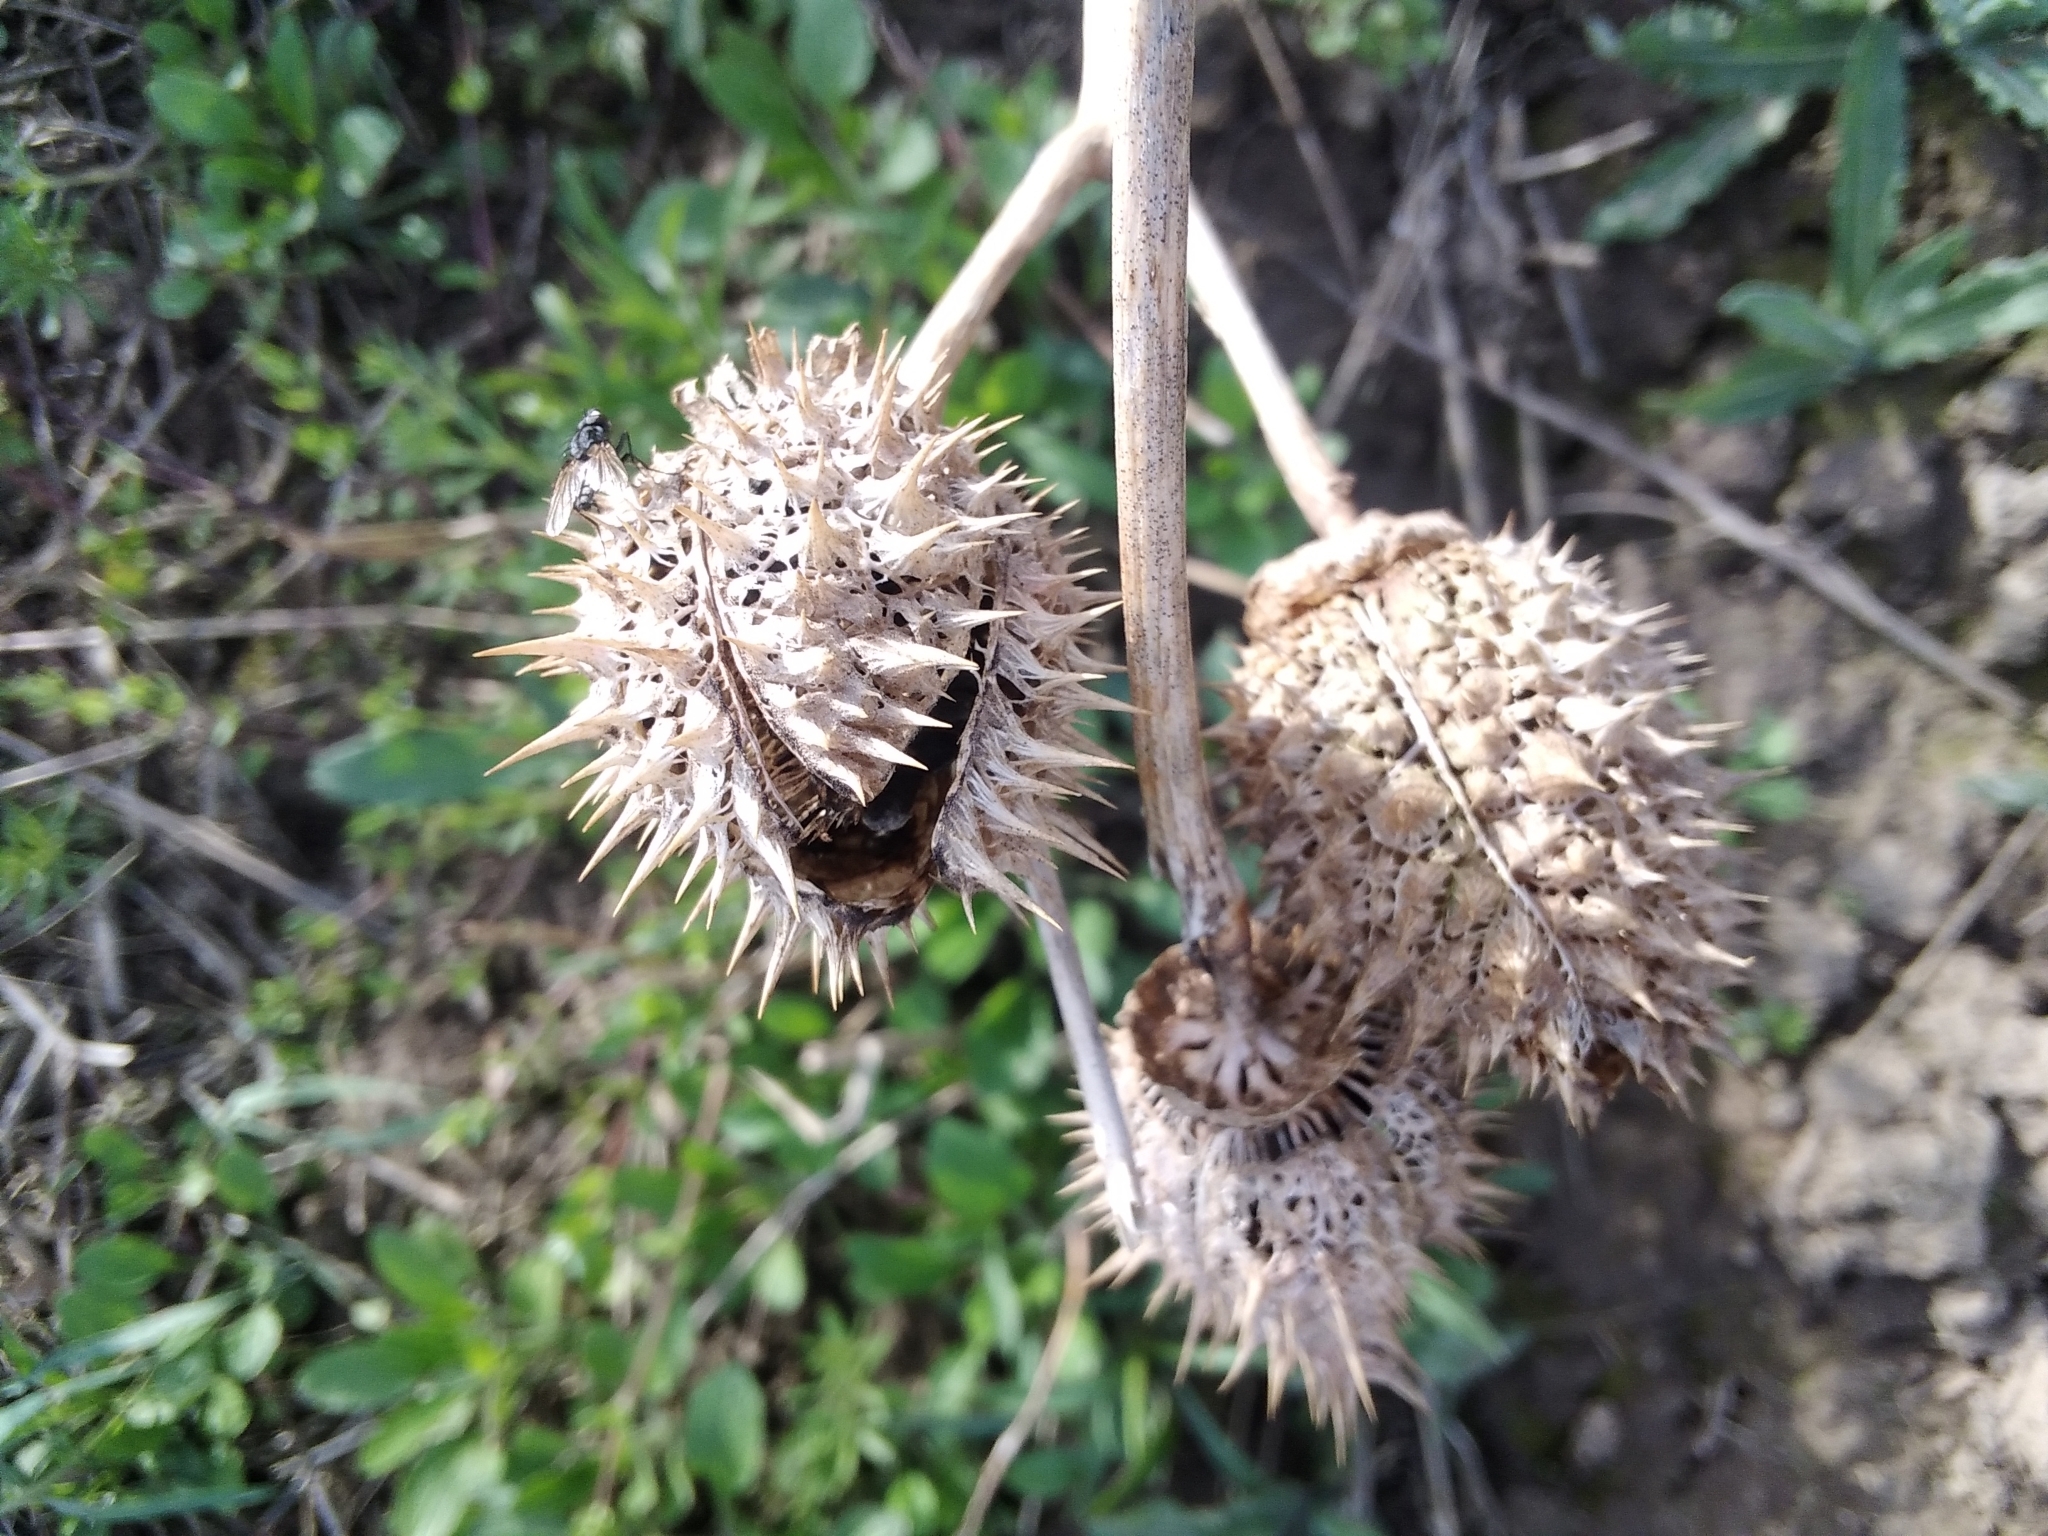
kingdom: Plantae
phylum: Tracheophyta
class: Magnoliopsida
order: Solanales
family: Solanaceae
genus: Datura
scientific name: Datura stramonium
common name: Thorn-apple
